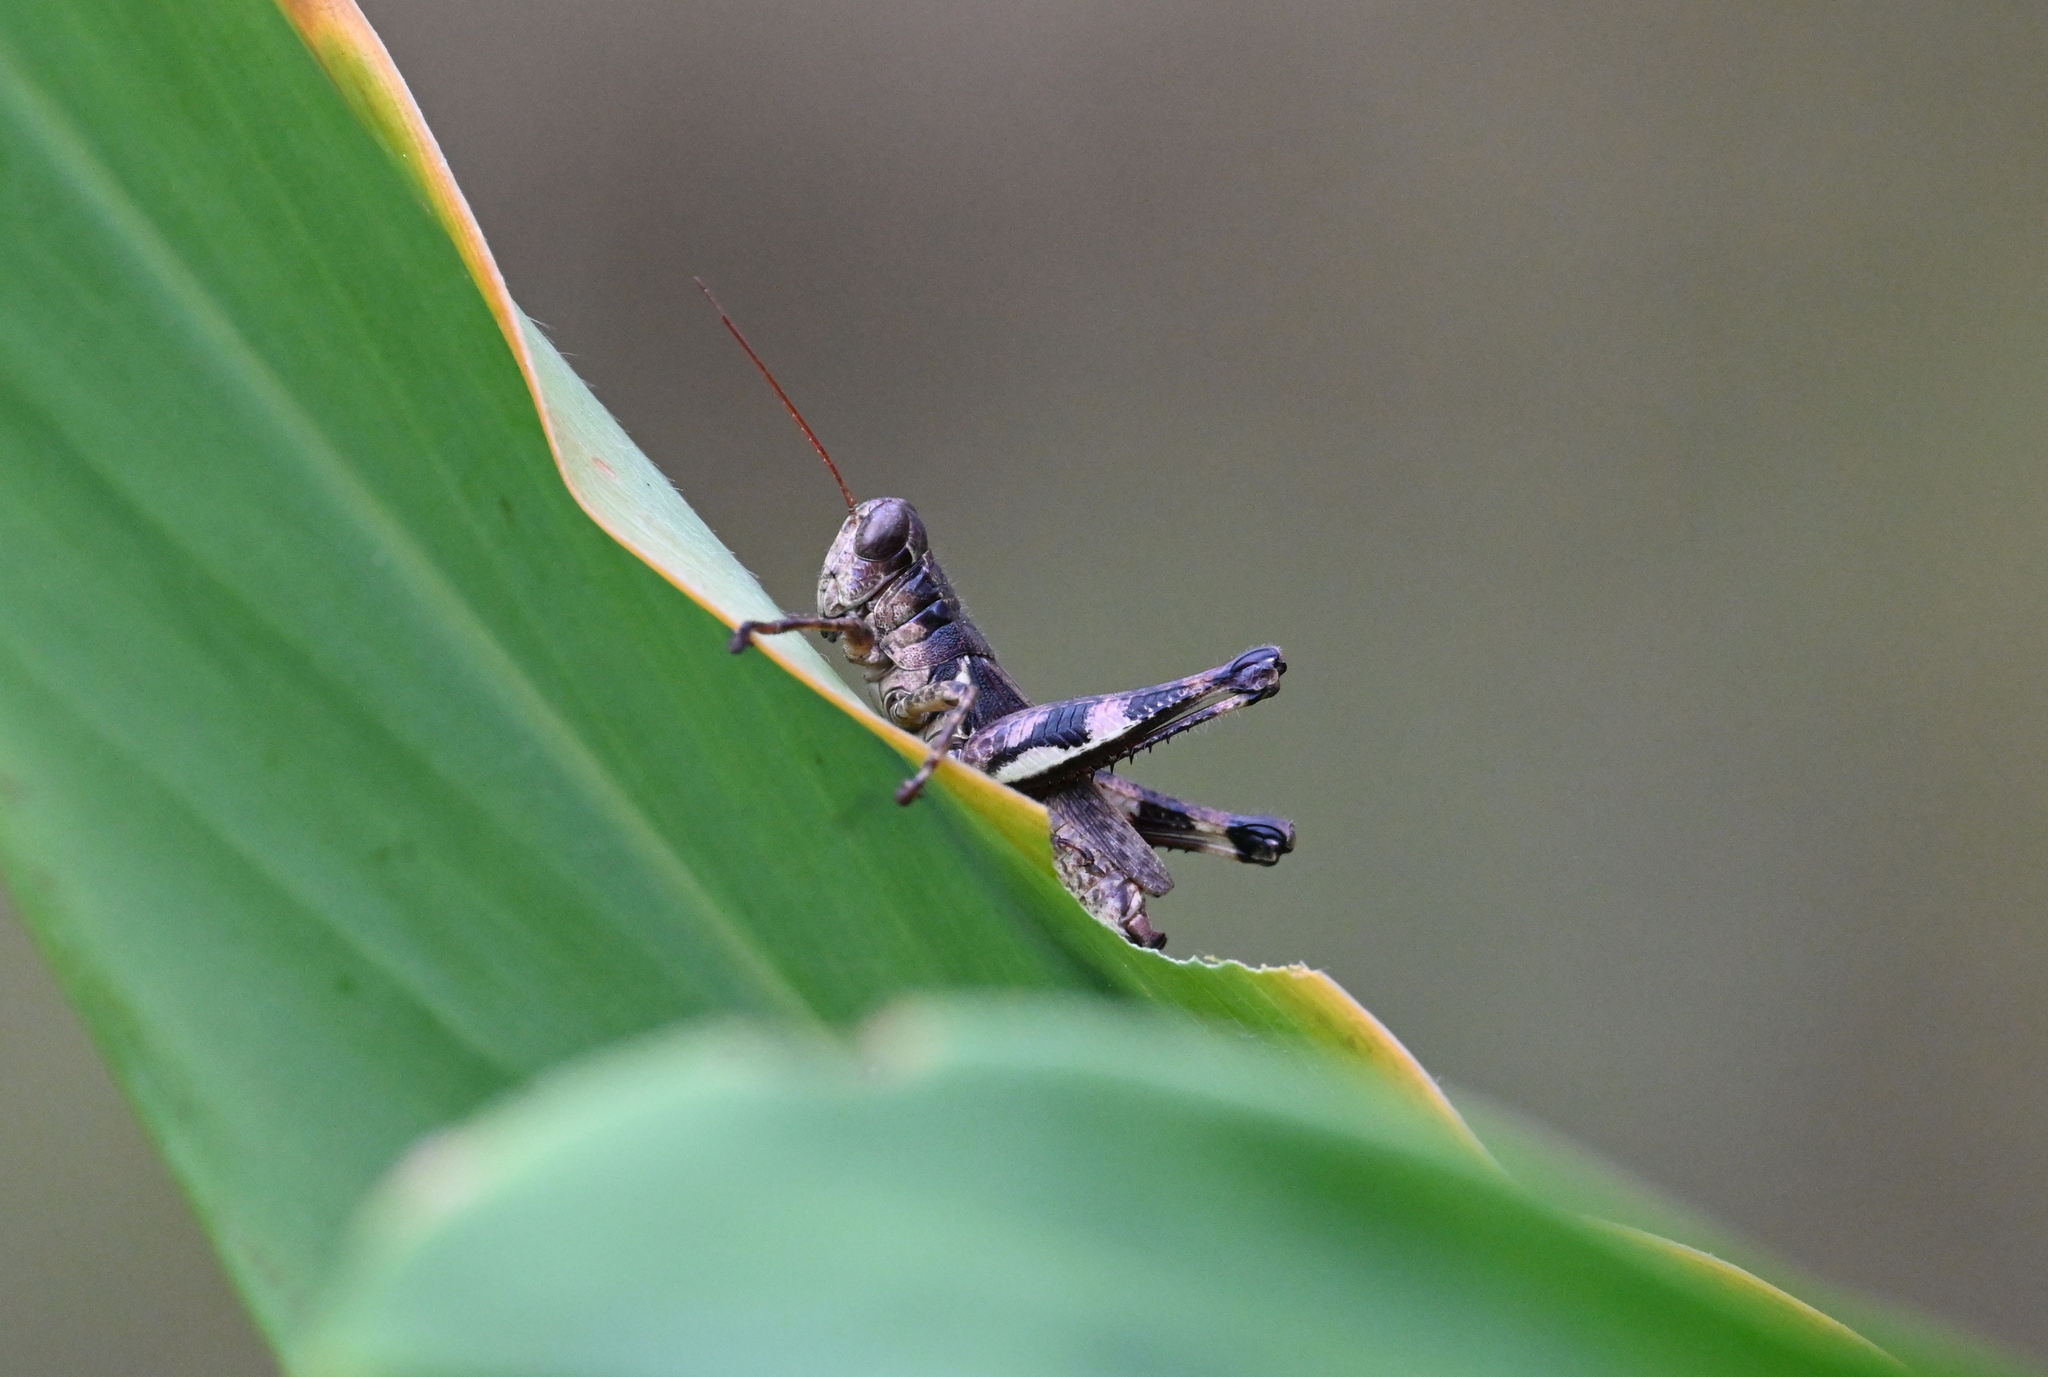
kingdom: Animalia
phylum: Arthropoda
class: Insecta
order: Orthoptera
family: Acrididae
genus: Melanoplus
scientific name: Melanoplus tunicae
